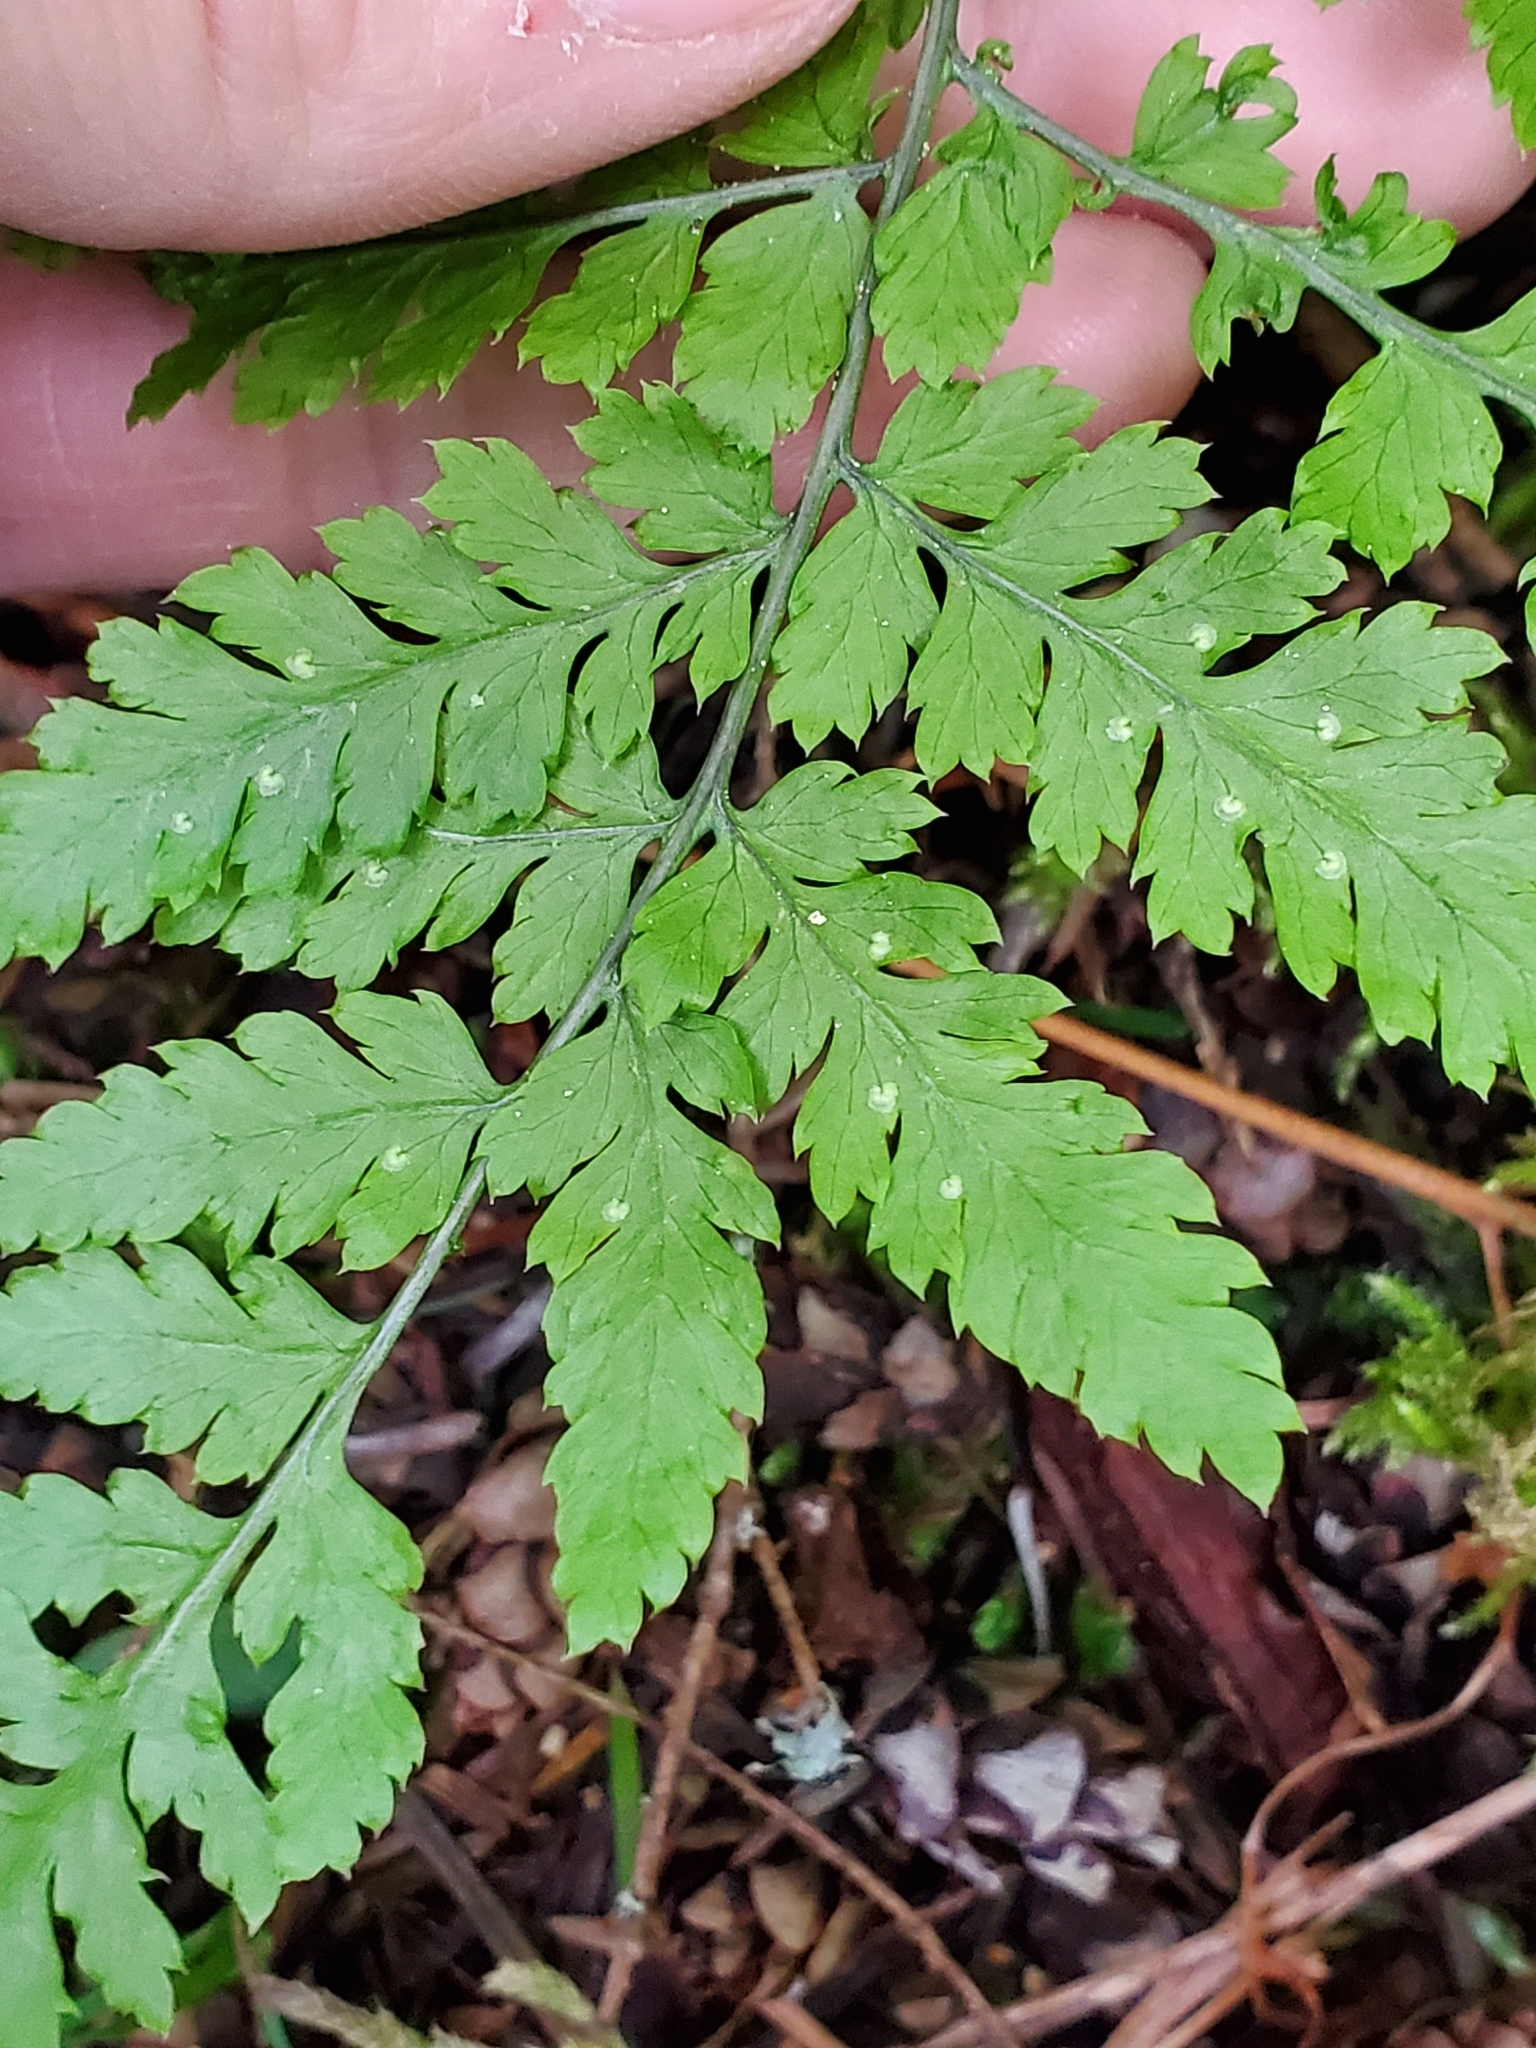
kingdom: Plantae
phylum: Tracheophyta
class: Polypodiopsida
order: Polypodiales
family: Dryopteridaceae
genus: Dryopteris
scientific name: Dryopteris expansa
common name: Northern buckler fern
